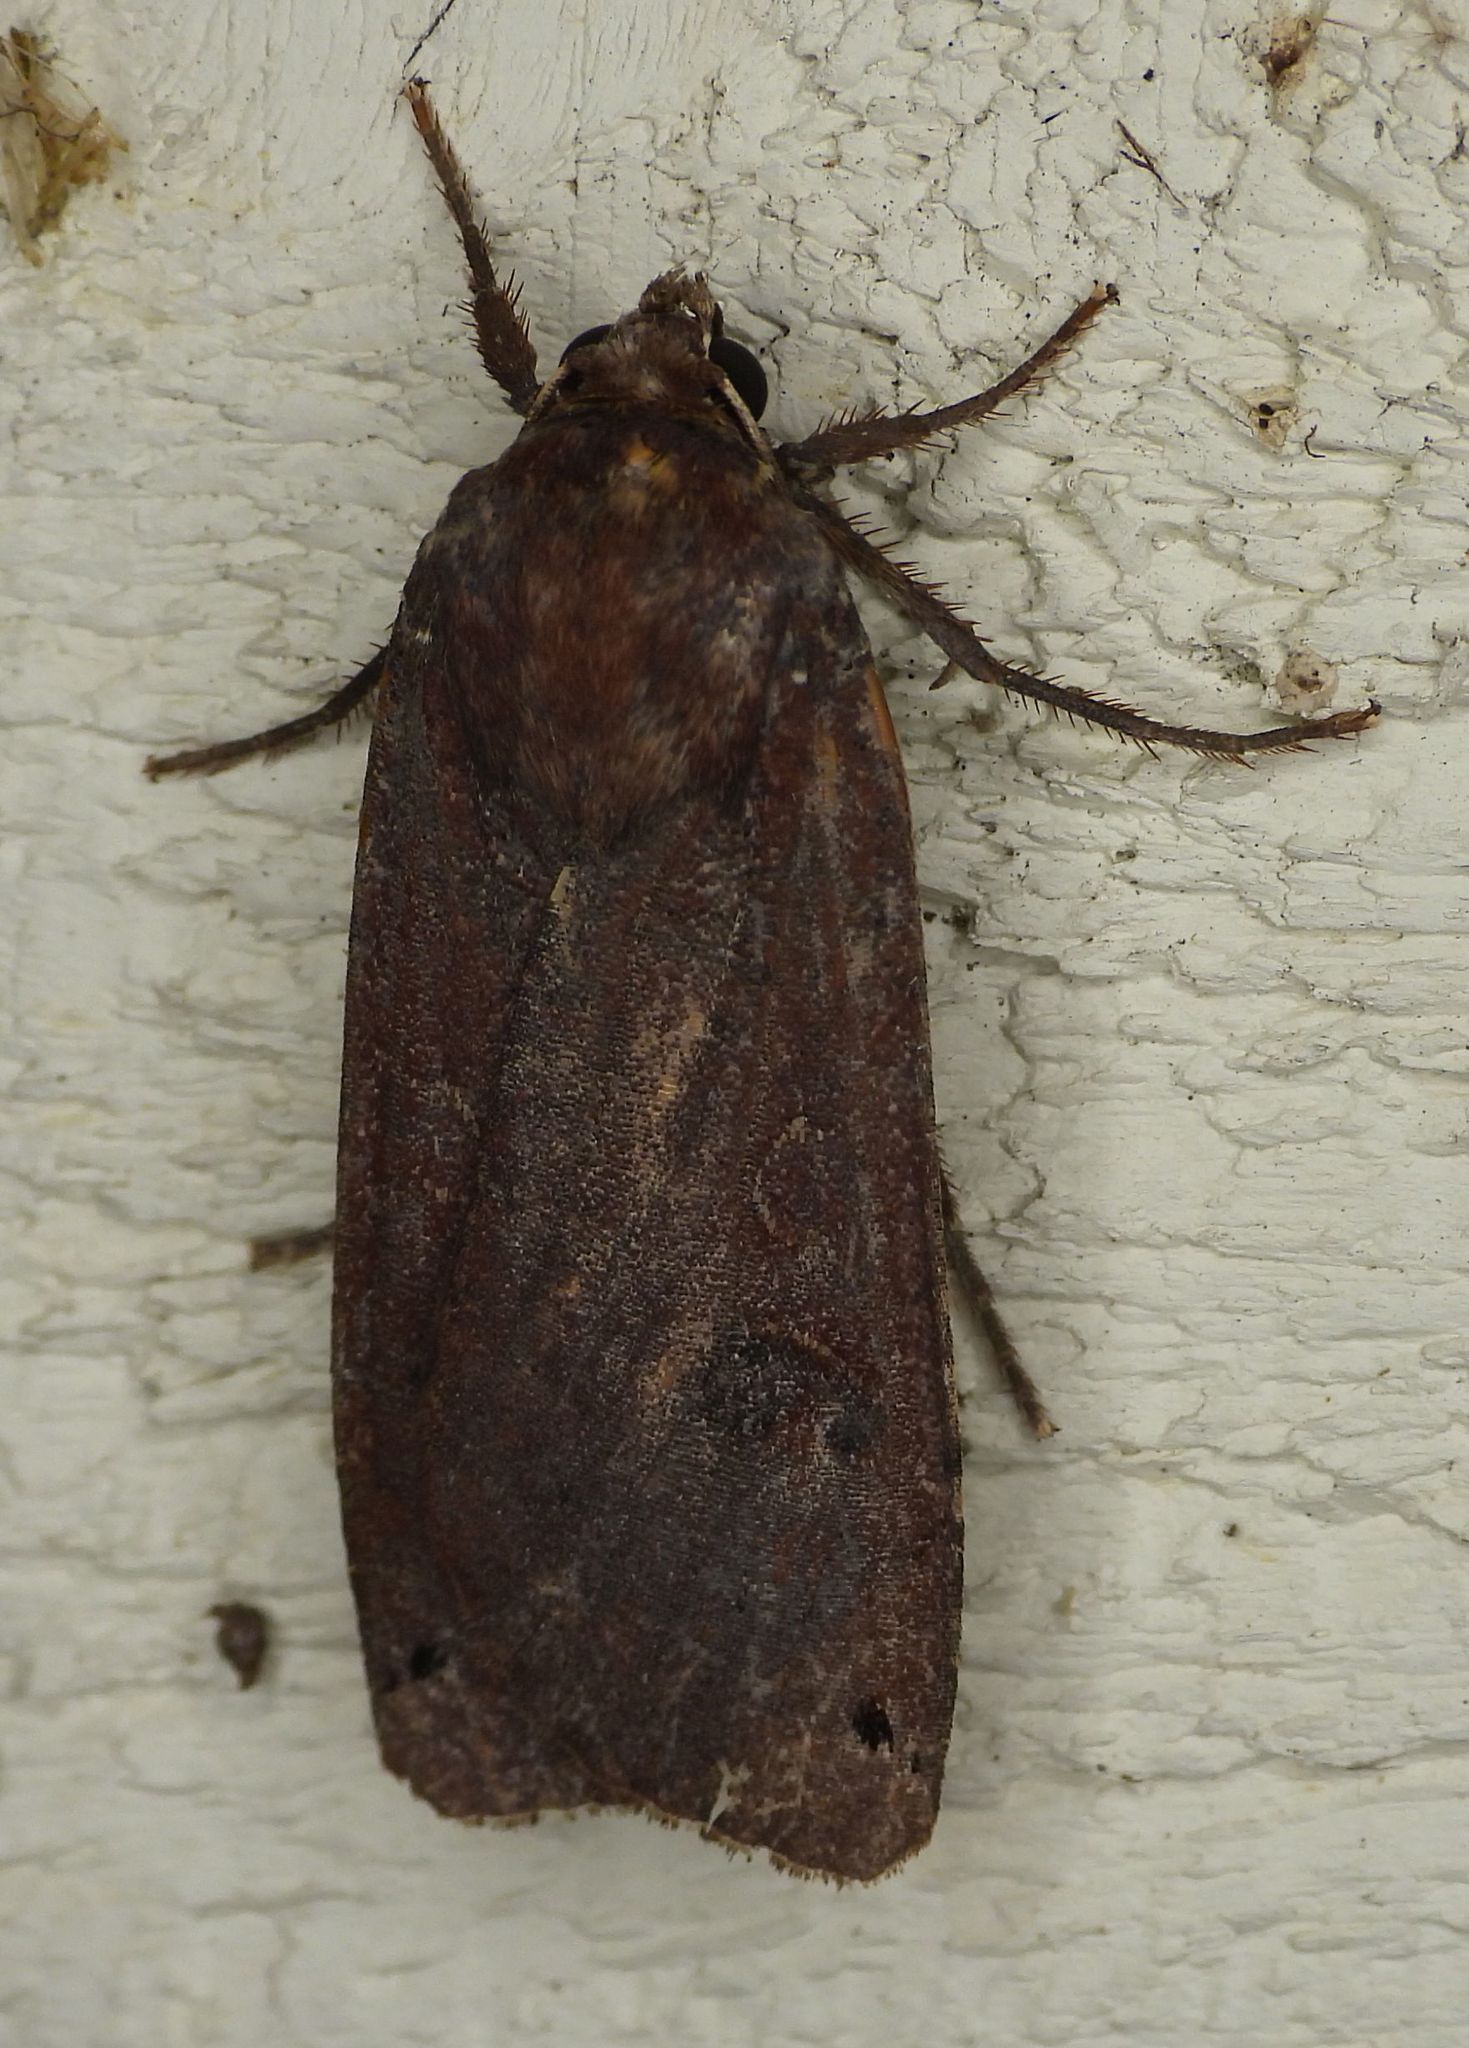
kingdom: Animalia
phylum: Arthropoda
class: Insecta
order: Lepidoptera
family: Noctuidae
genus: Noctua
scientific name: Noctua pronuba
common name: Large yellow underwing
